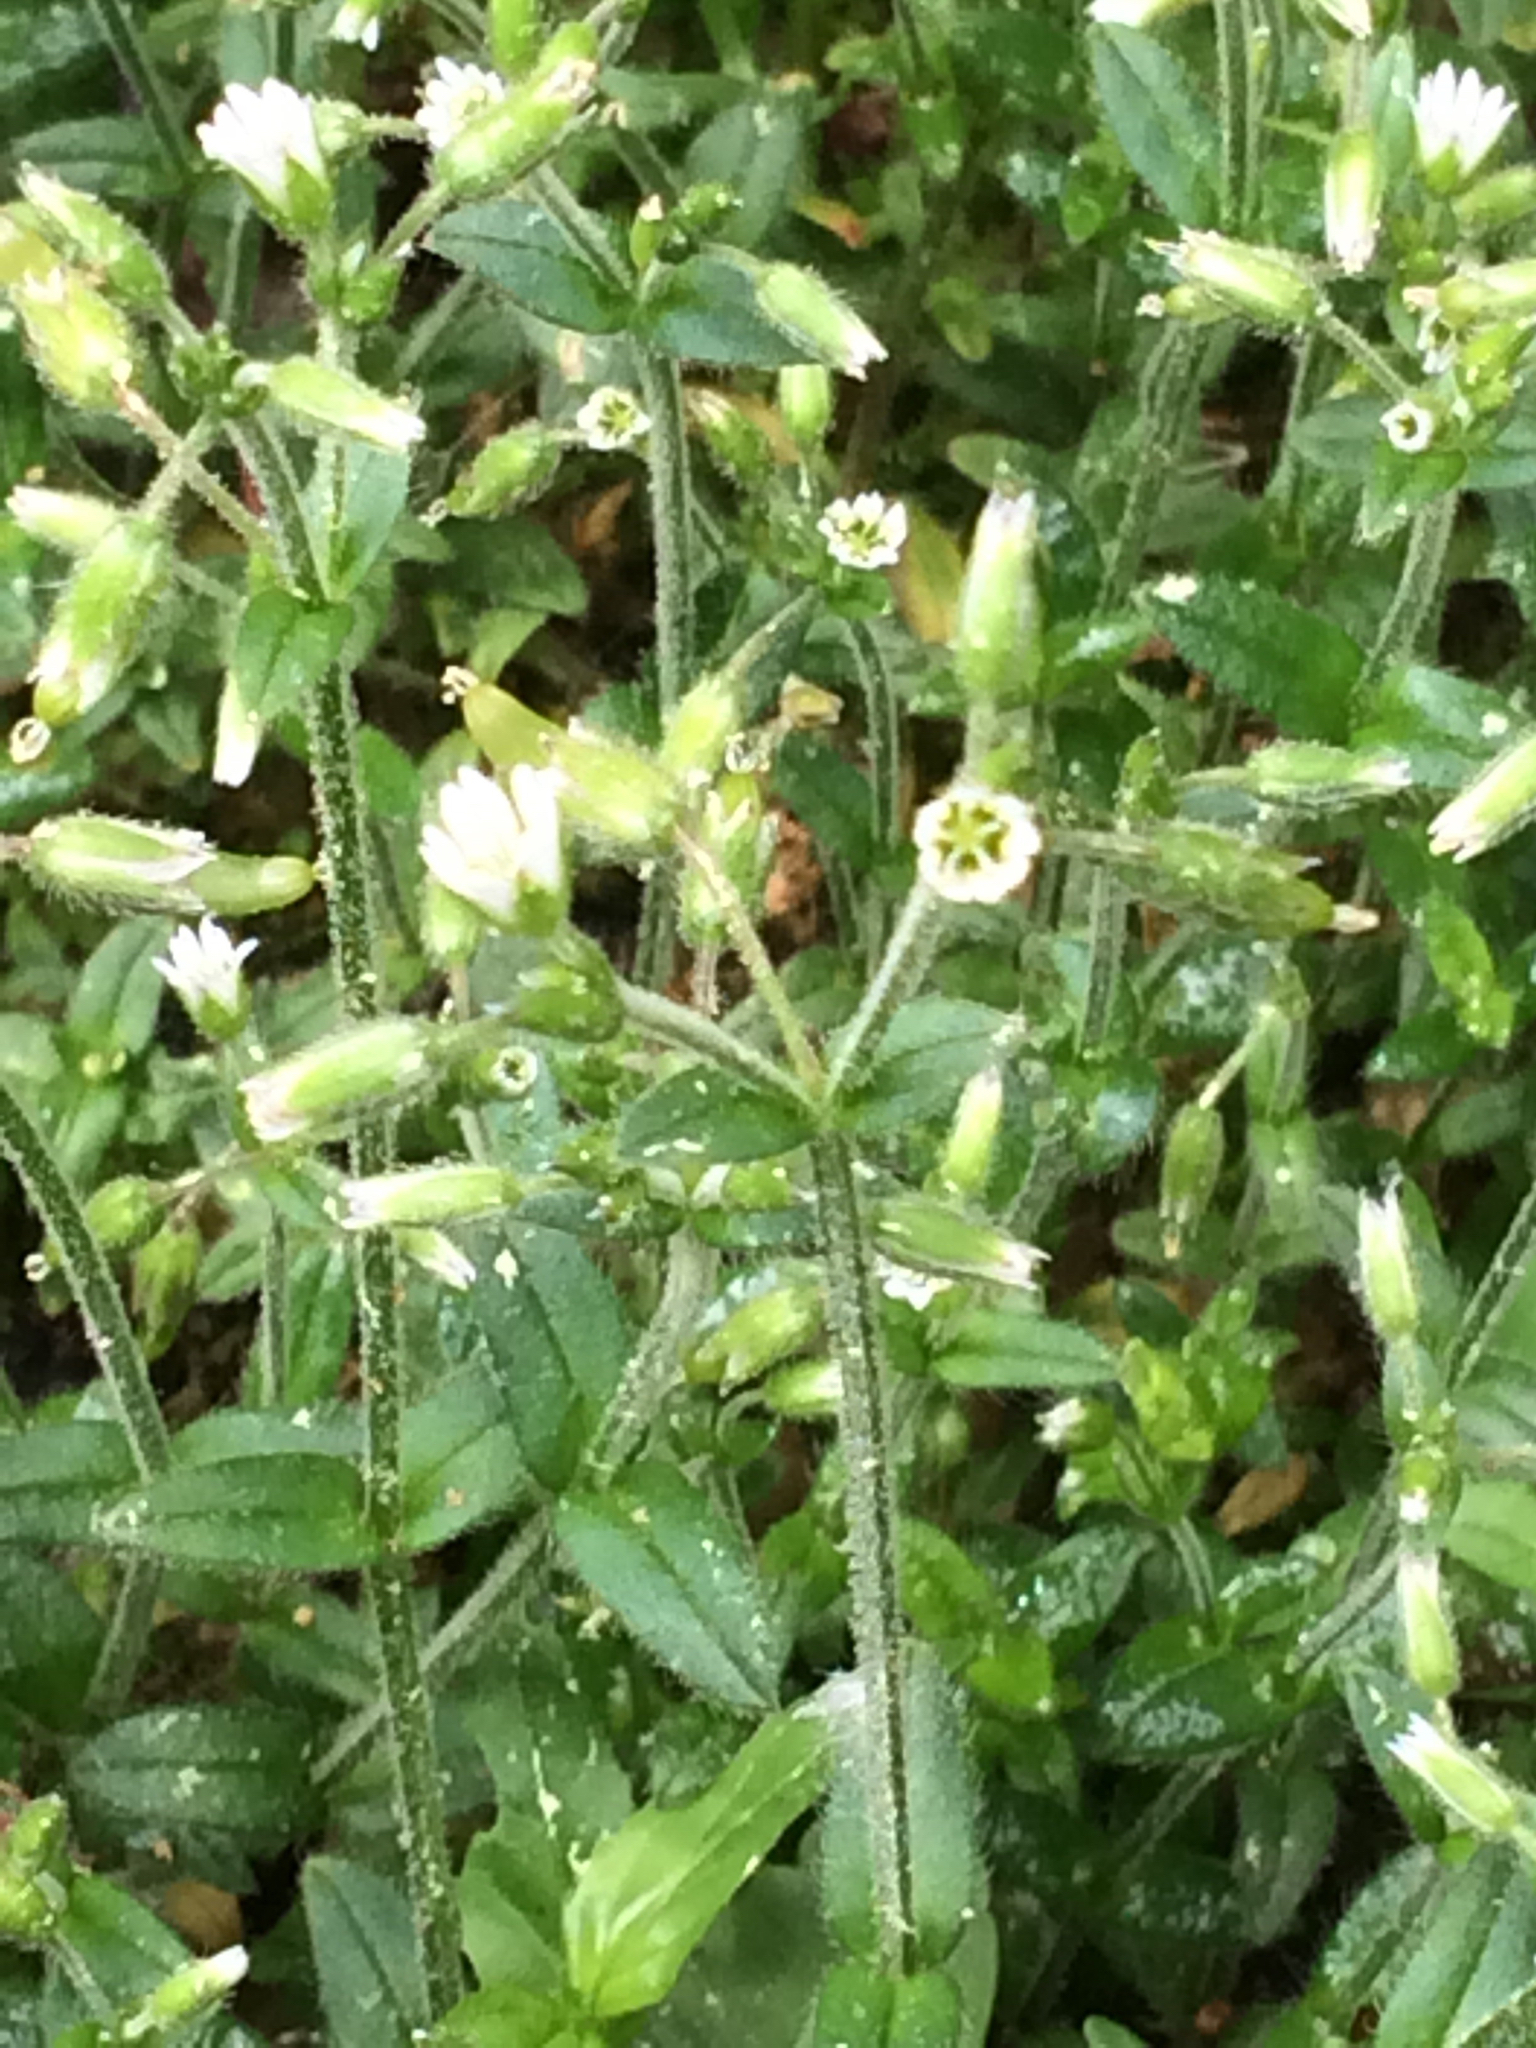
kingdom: Plantae
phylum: Tracheophyta
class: Magnoliopsida
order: Caryophyllales
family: Caryophyllaceae
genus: Cerastium
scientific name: Cerastium fontanum
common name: Common mouse-ear
